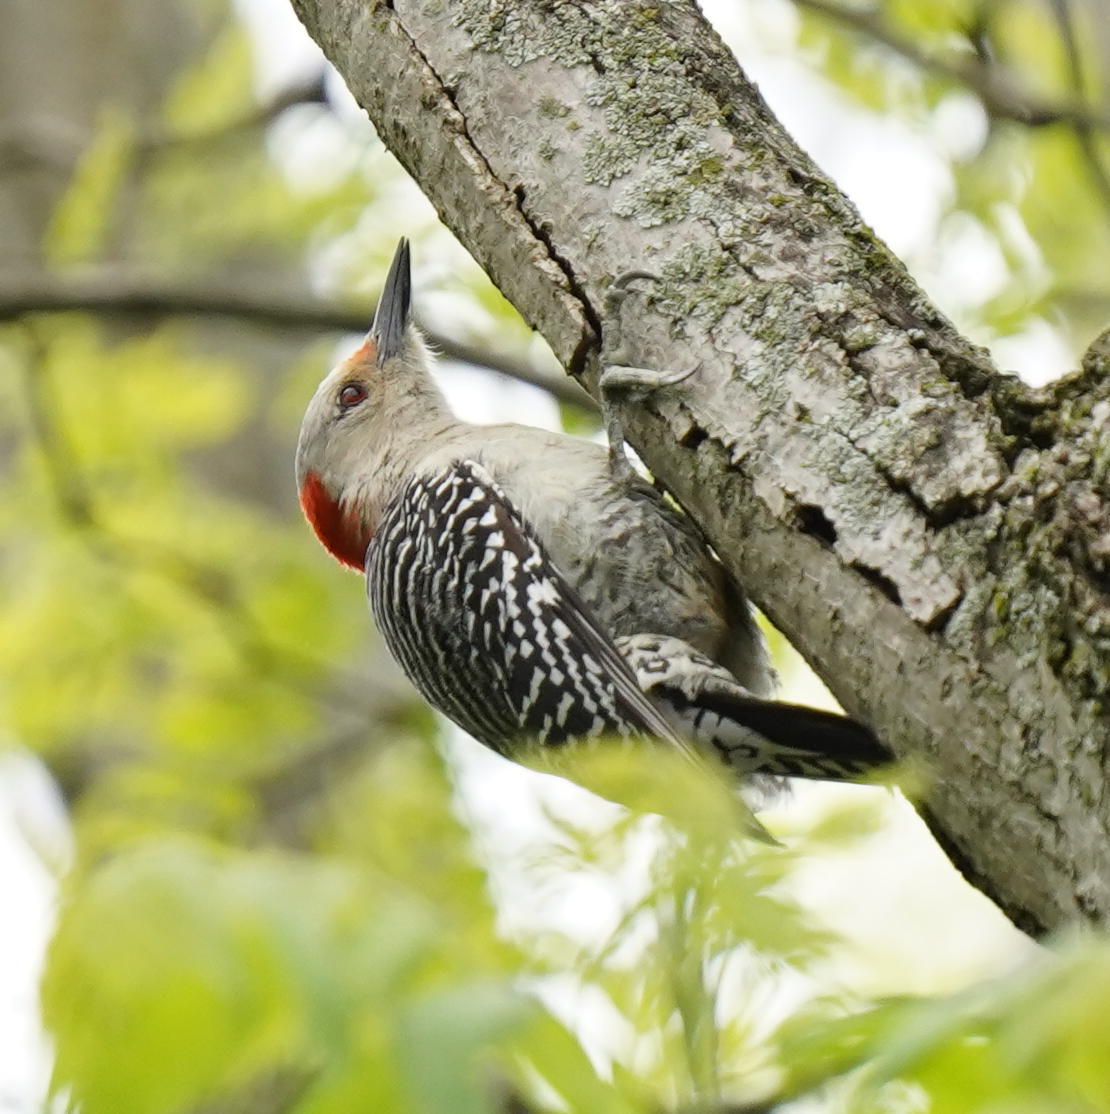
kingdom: Animalia
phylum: Chordata
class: Aves
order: Piciformes
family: Picidae
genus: Melanerpes
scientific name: Melanerpes carolinus
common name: Red-bellied woodpecker
